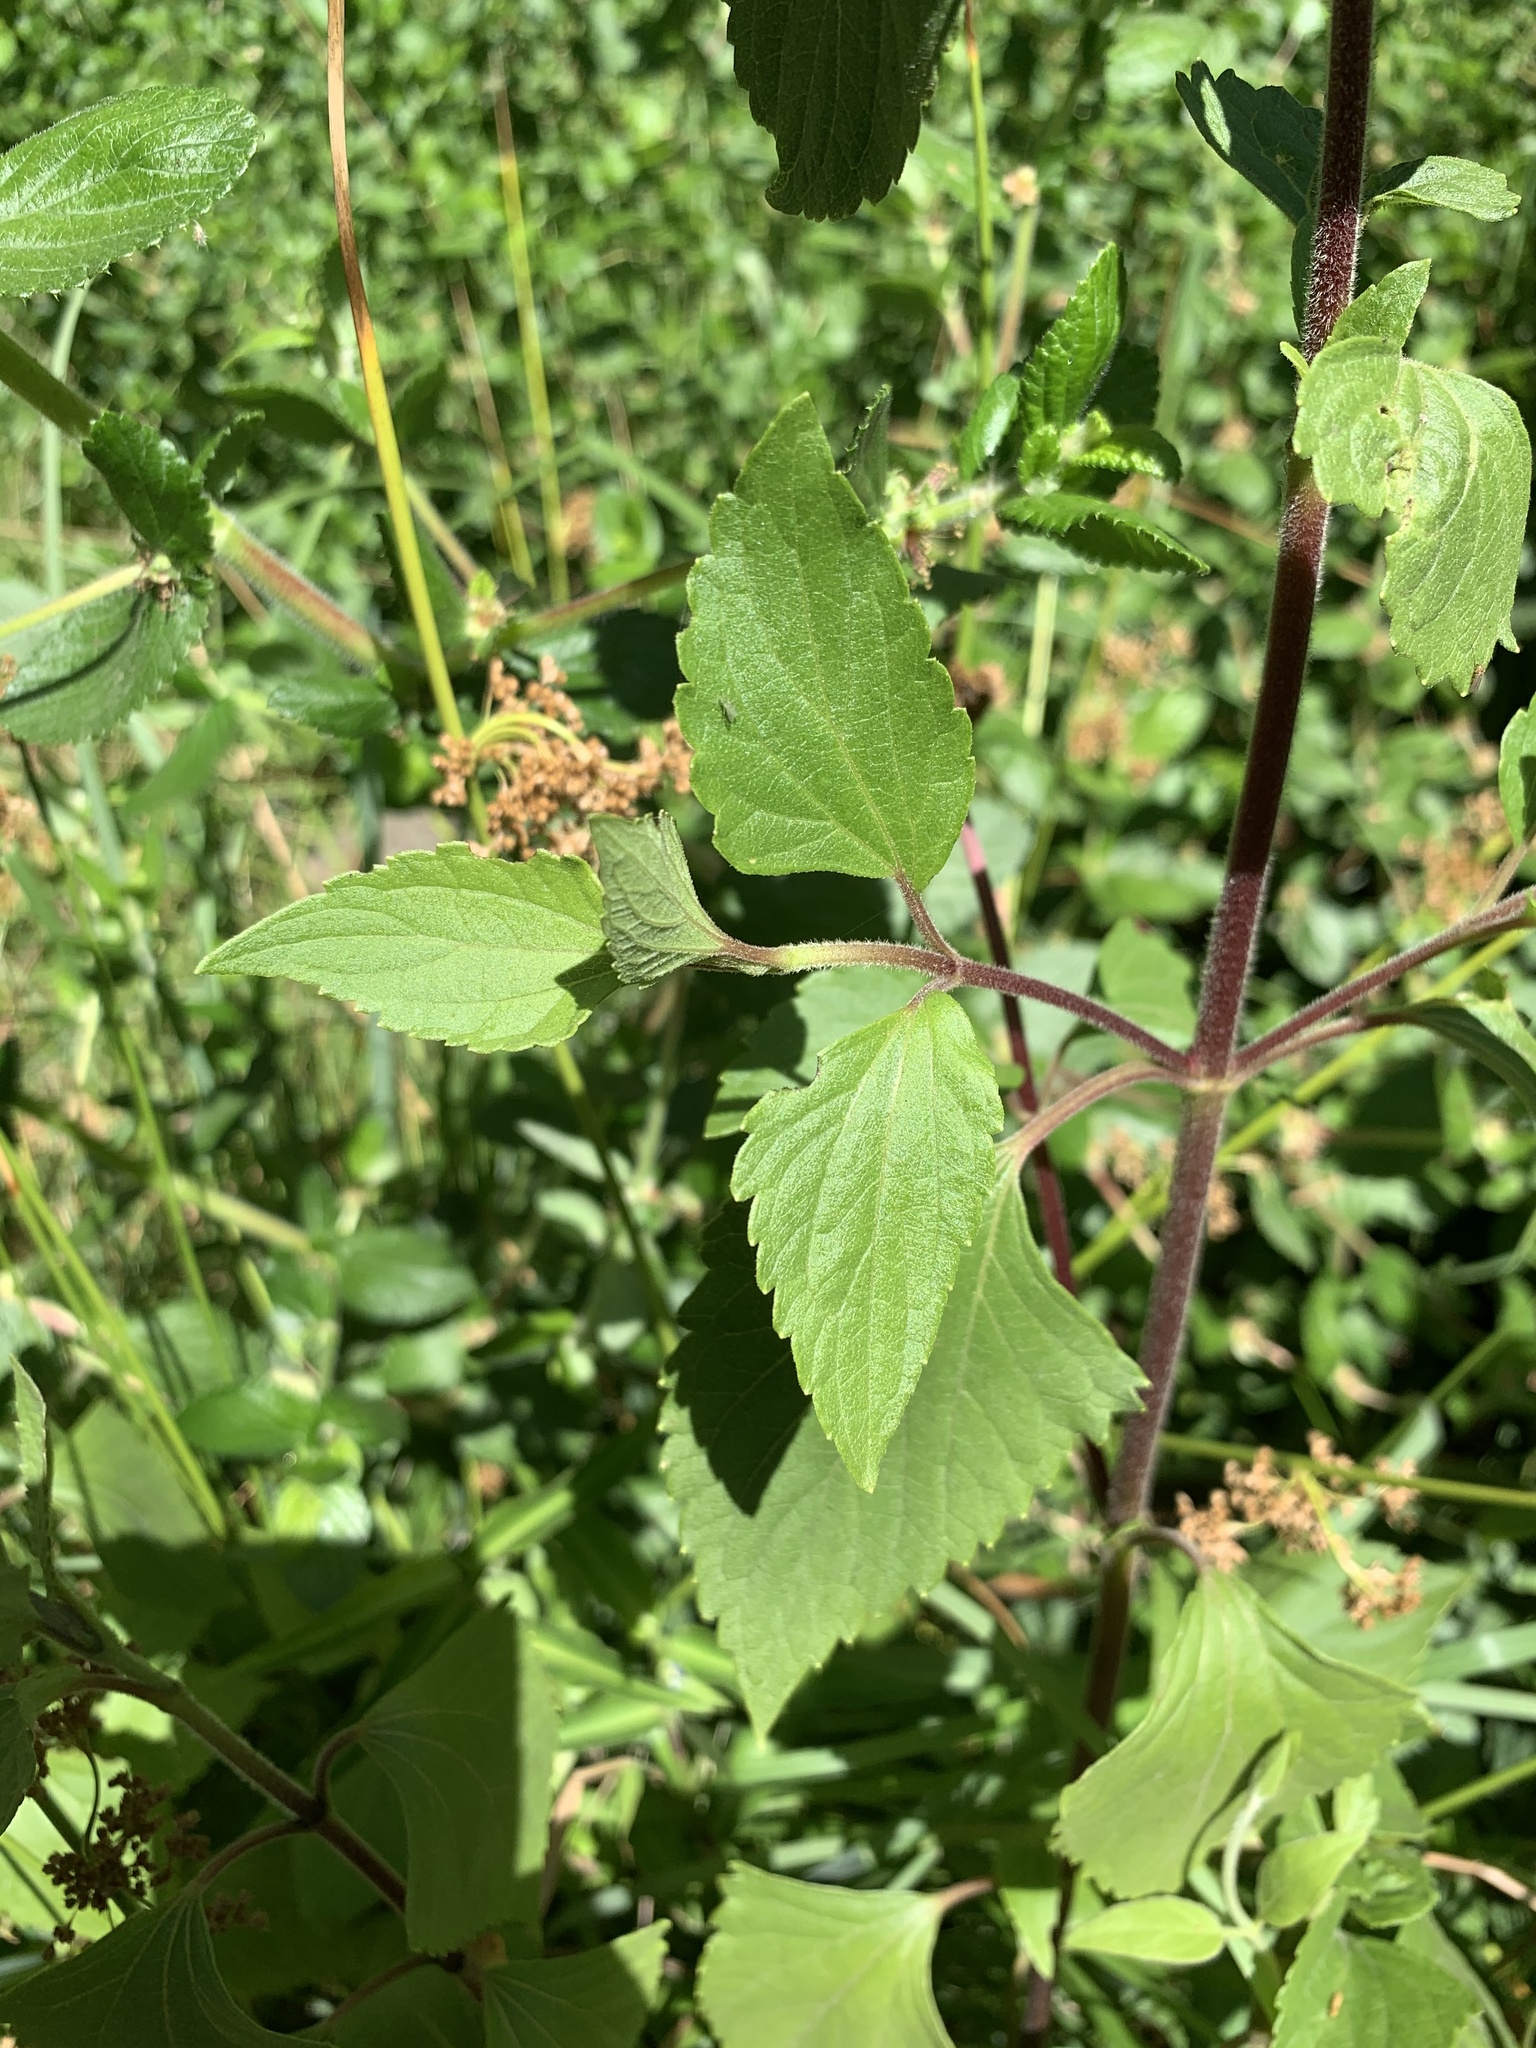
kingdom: Plantae
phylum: Tracheophyta
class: Magnoliopsida
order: Asterales
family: Asteraceae
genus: Ageratina
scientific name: Ageratina adenophora
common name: Sticky snakeroot
